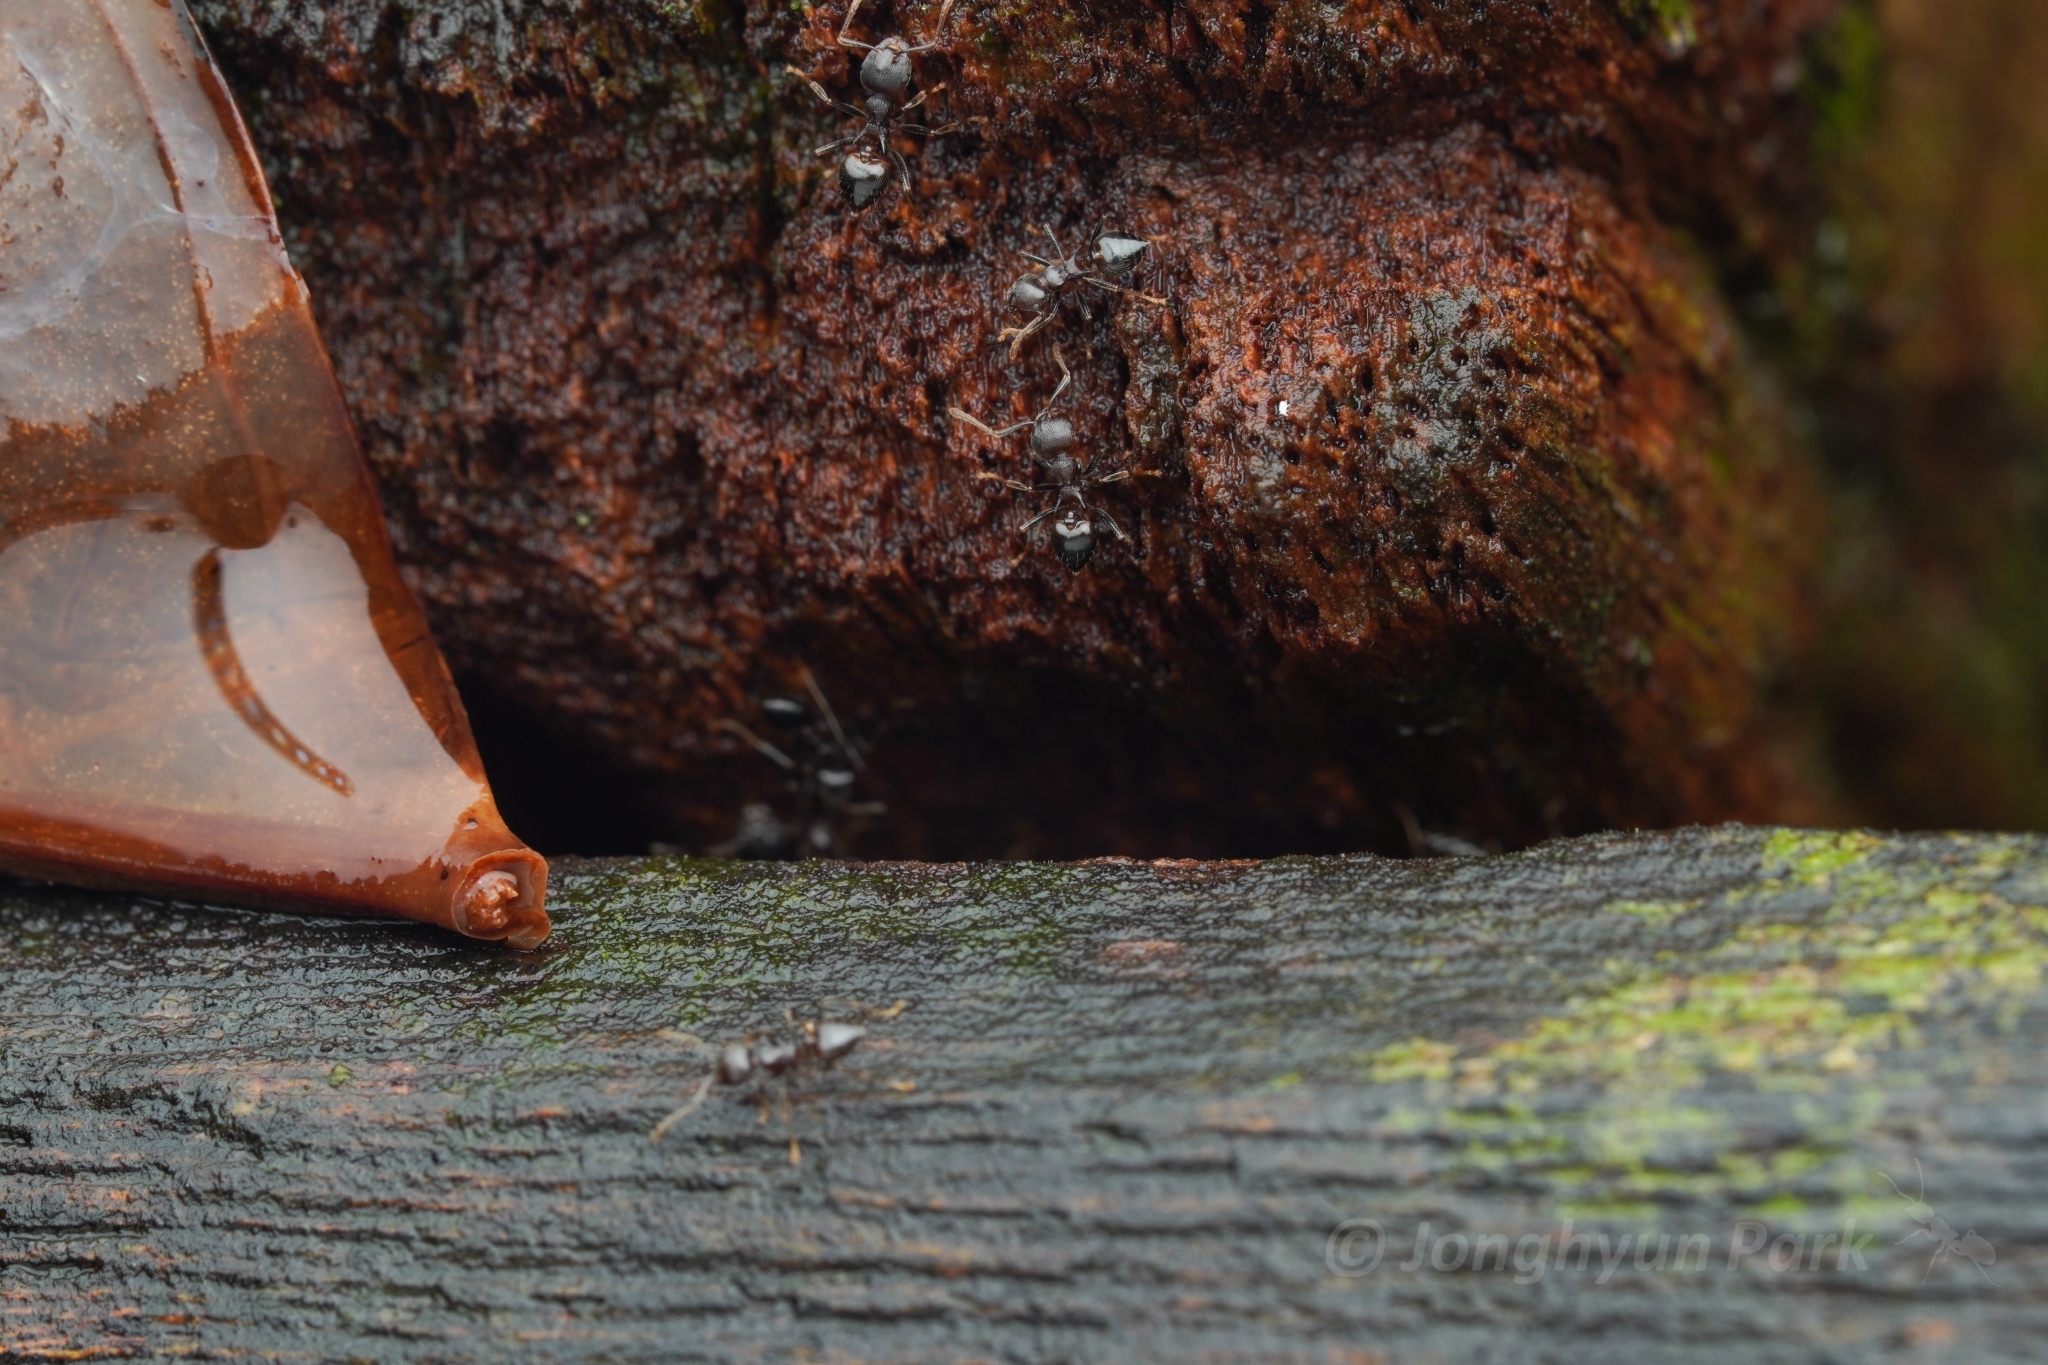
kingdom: Animalia
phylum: Arthropoda
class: Insecta
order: Hymenoptera
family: Formicidae
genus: Crematogaster
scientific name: Crematogaster modiglianii
